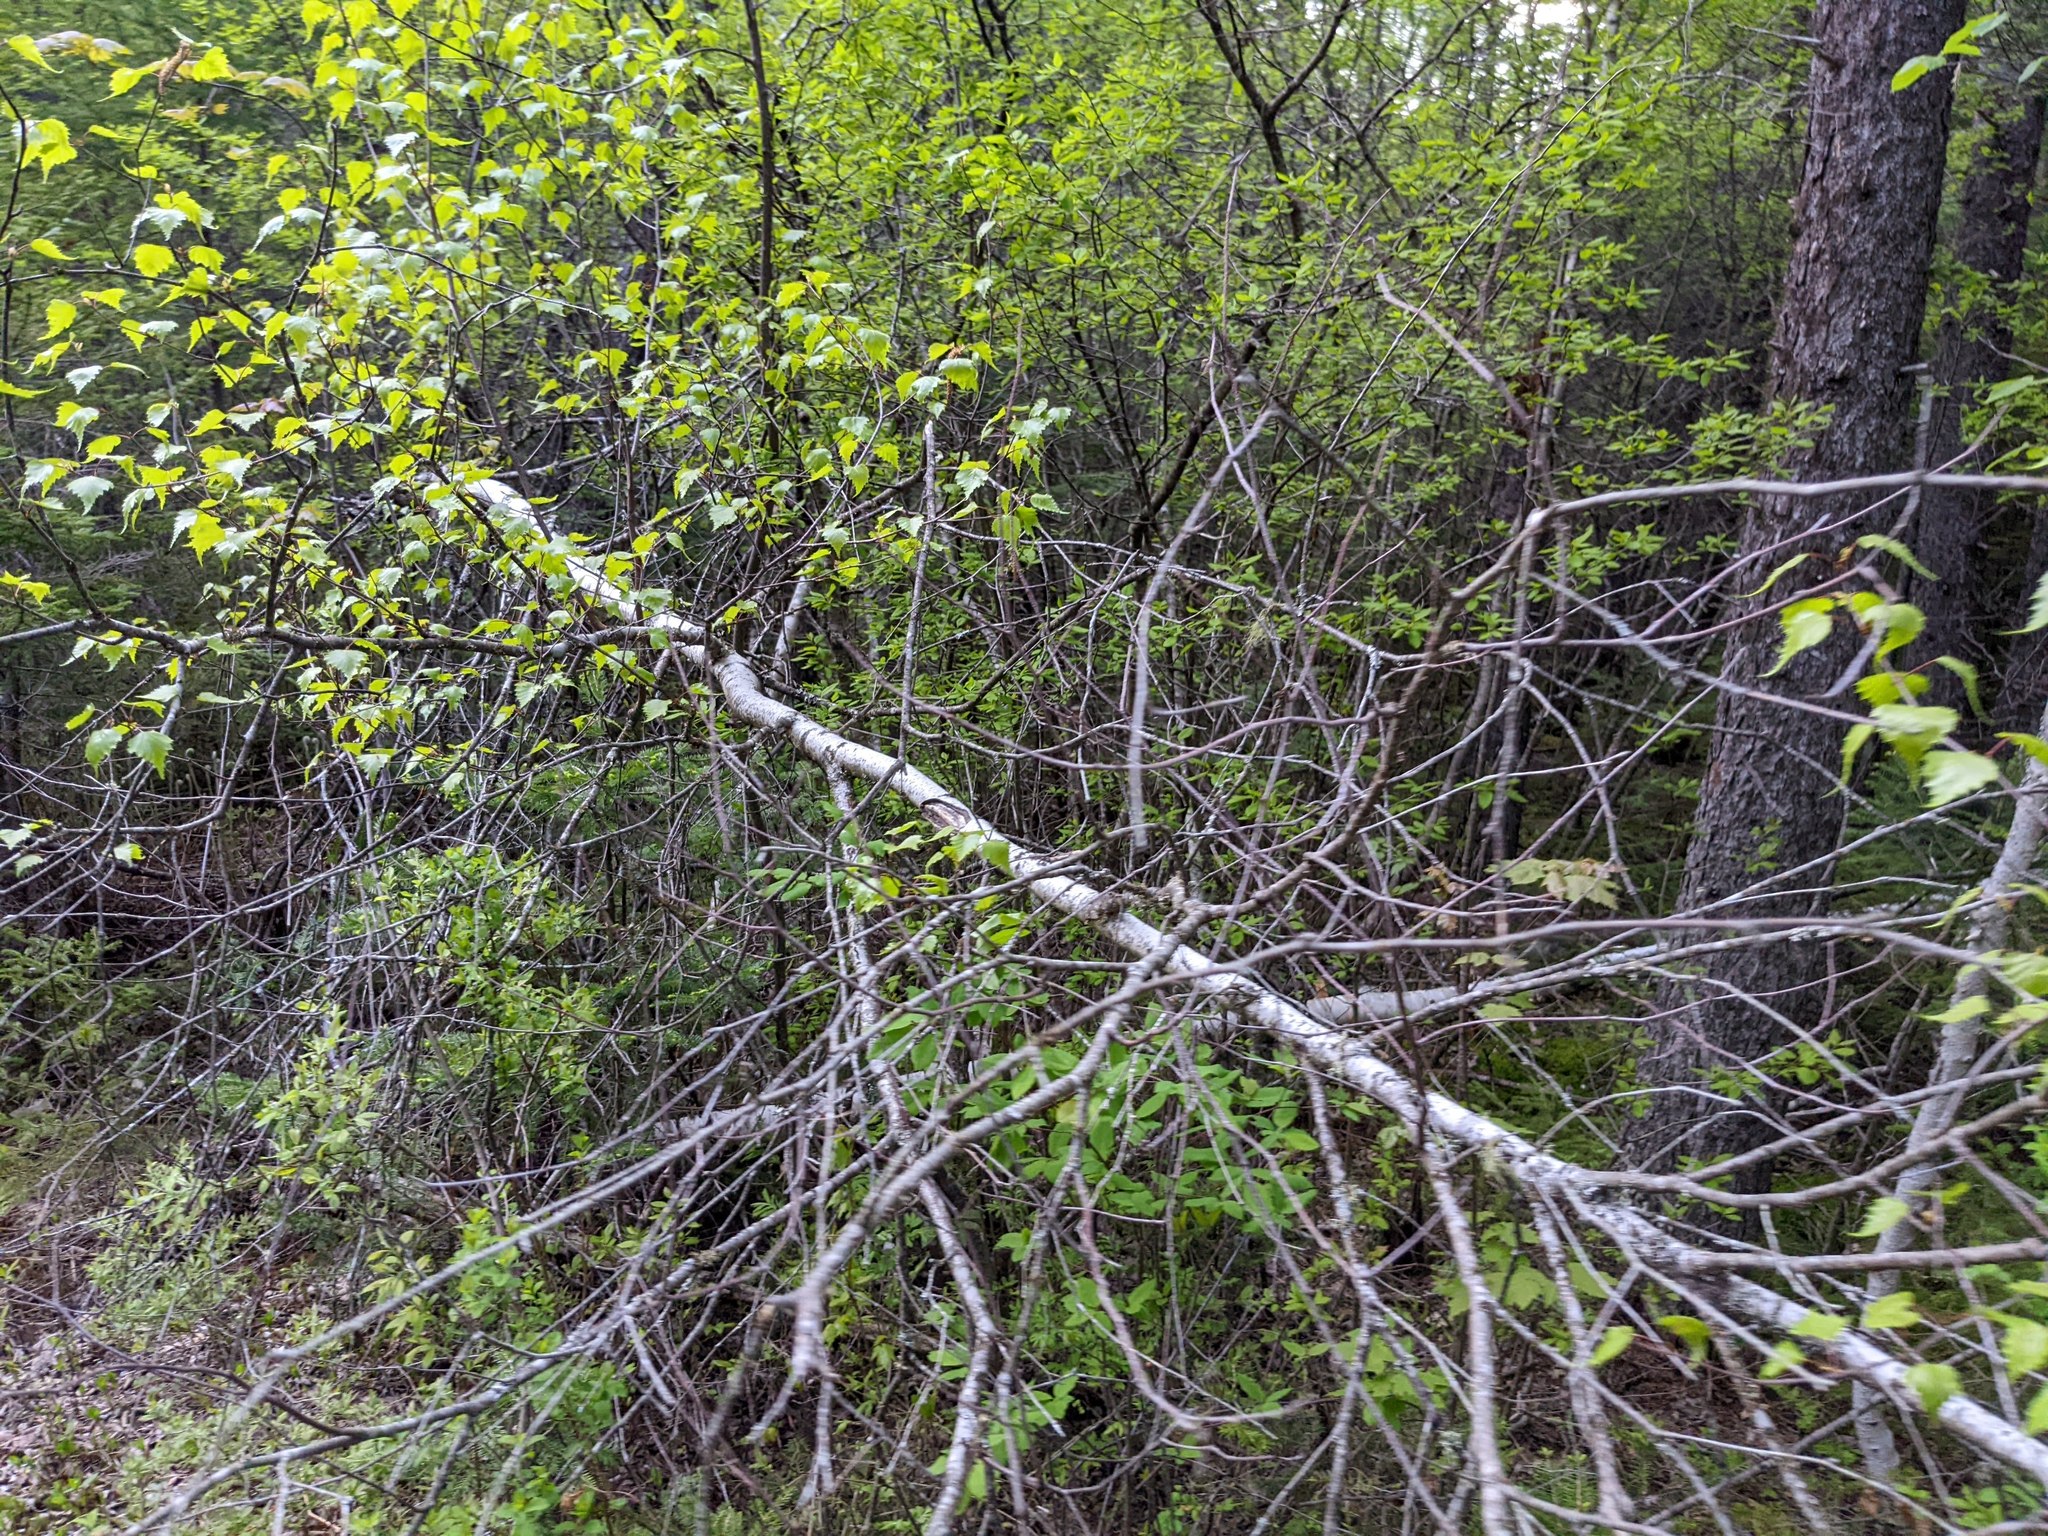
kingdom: Plantae
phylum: Tracheophyta
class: Magnoliopsida
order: Fagales
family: Betulaceae
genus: Betula
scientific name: Betula populifolia
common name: Fire birch
